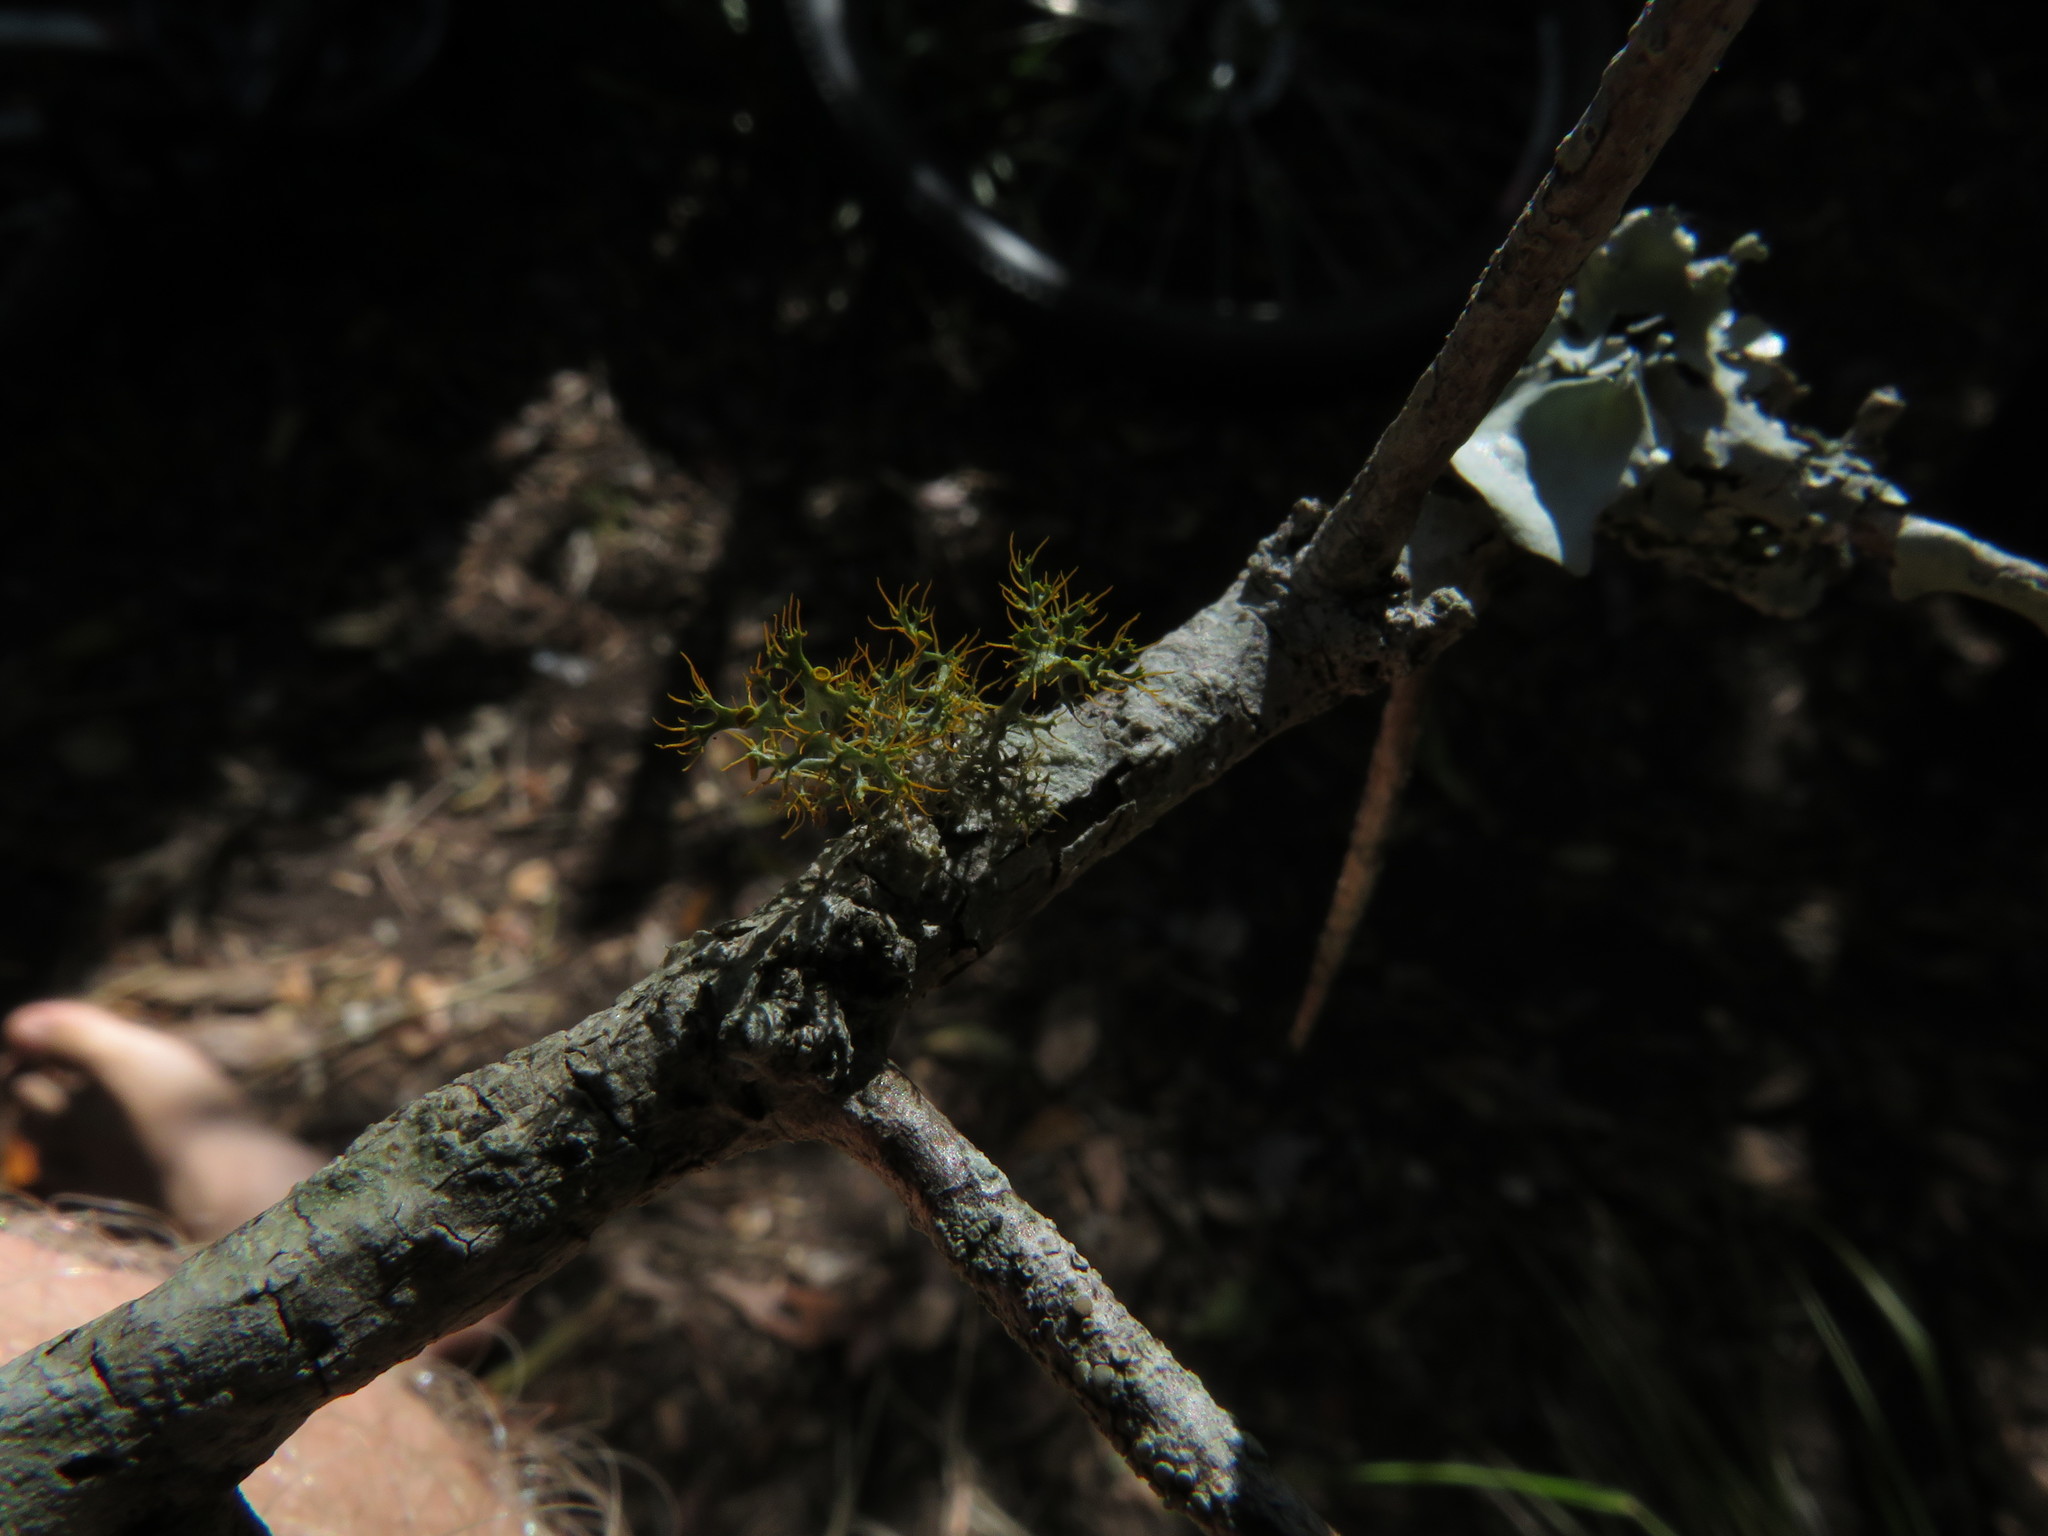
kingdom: Fungi
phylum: Ascomycota
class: Lecanoromycetes
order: Teloschistales
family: Teloschistaceae
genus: Teloschistes
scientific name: Teloschistes pulvinaris
